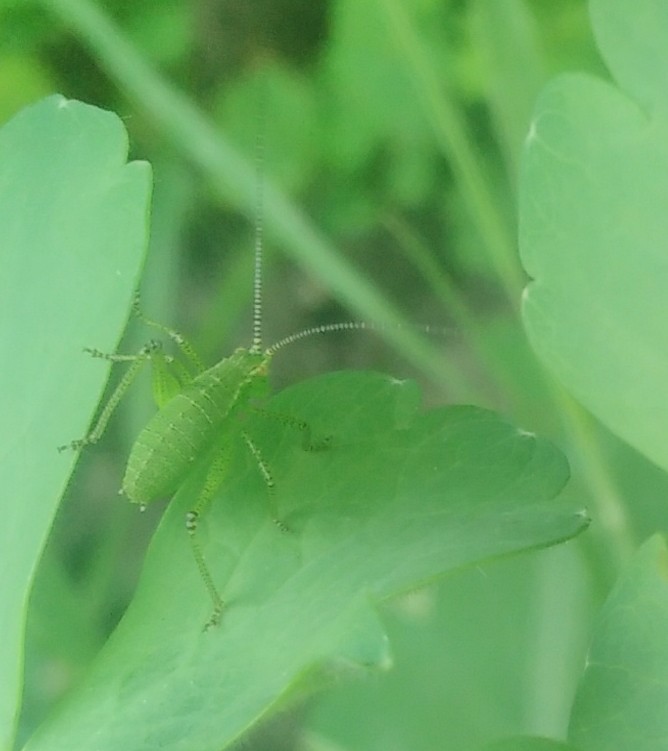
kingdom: Animalia
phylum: Arthropoda
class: Insecta
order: Orthoptera
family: Tettigoniidae
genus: Leptophyes
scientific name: Leptophyes punctatissima
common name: Speckled bush-cricket
